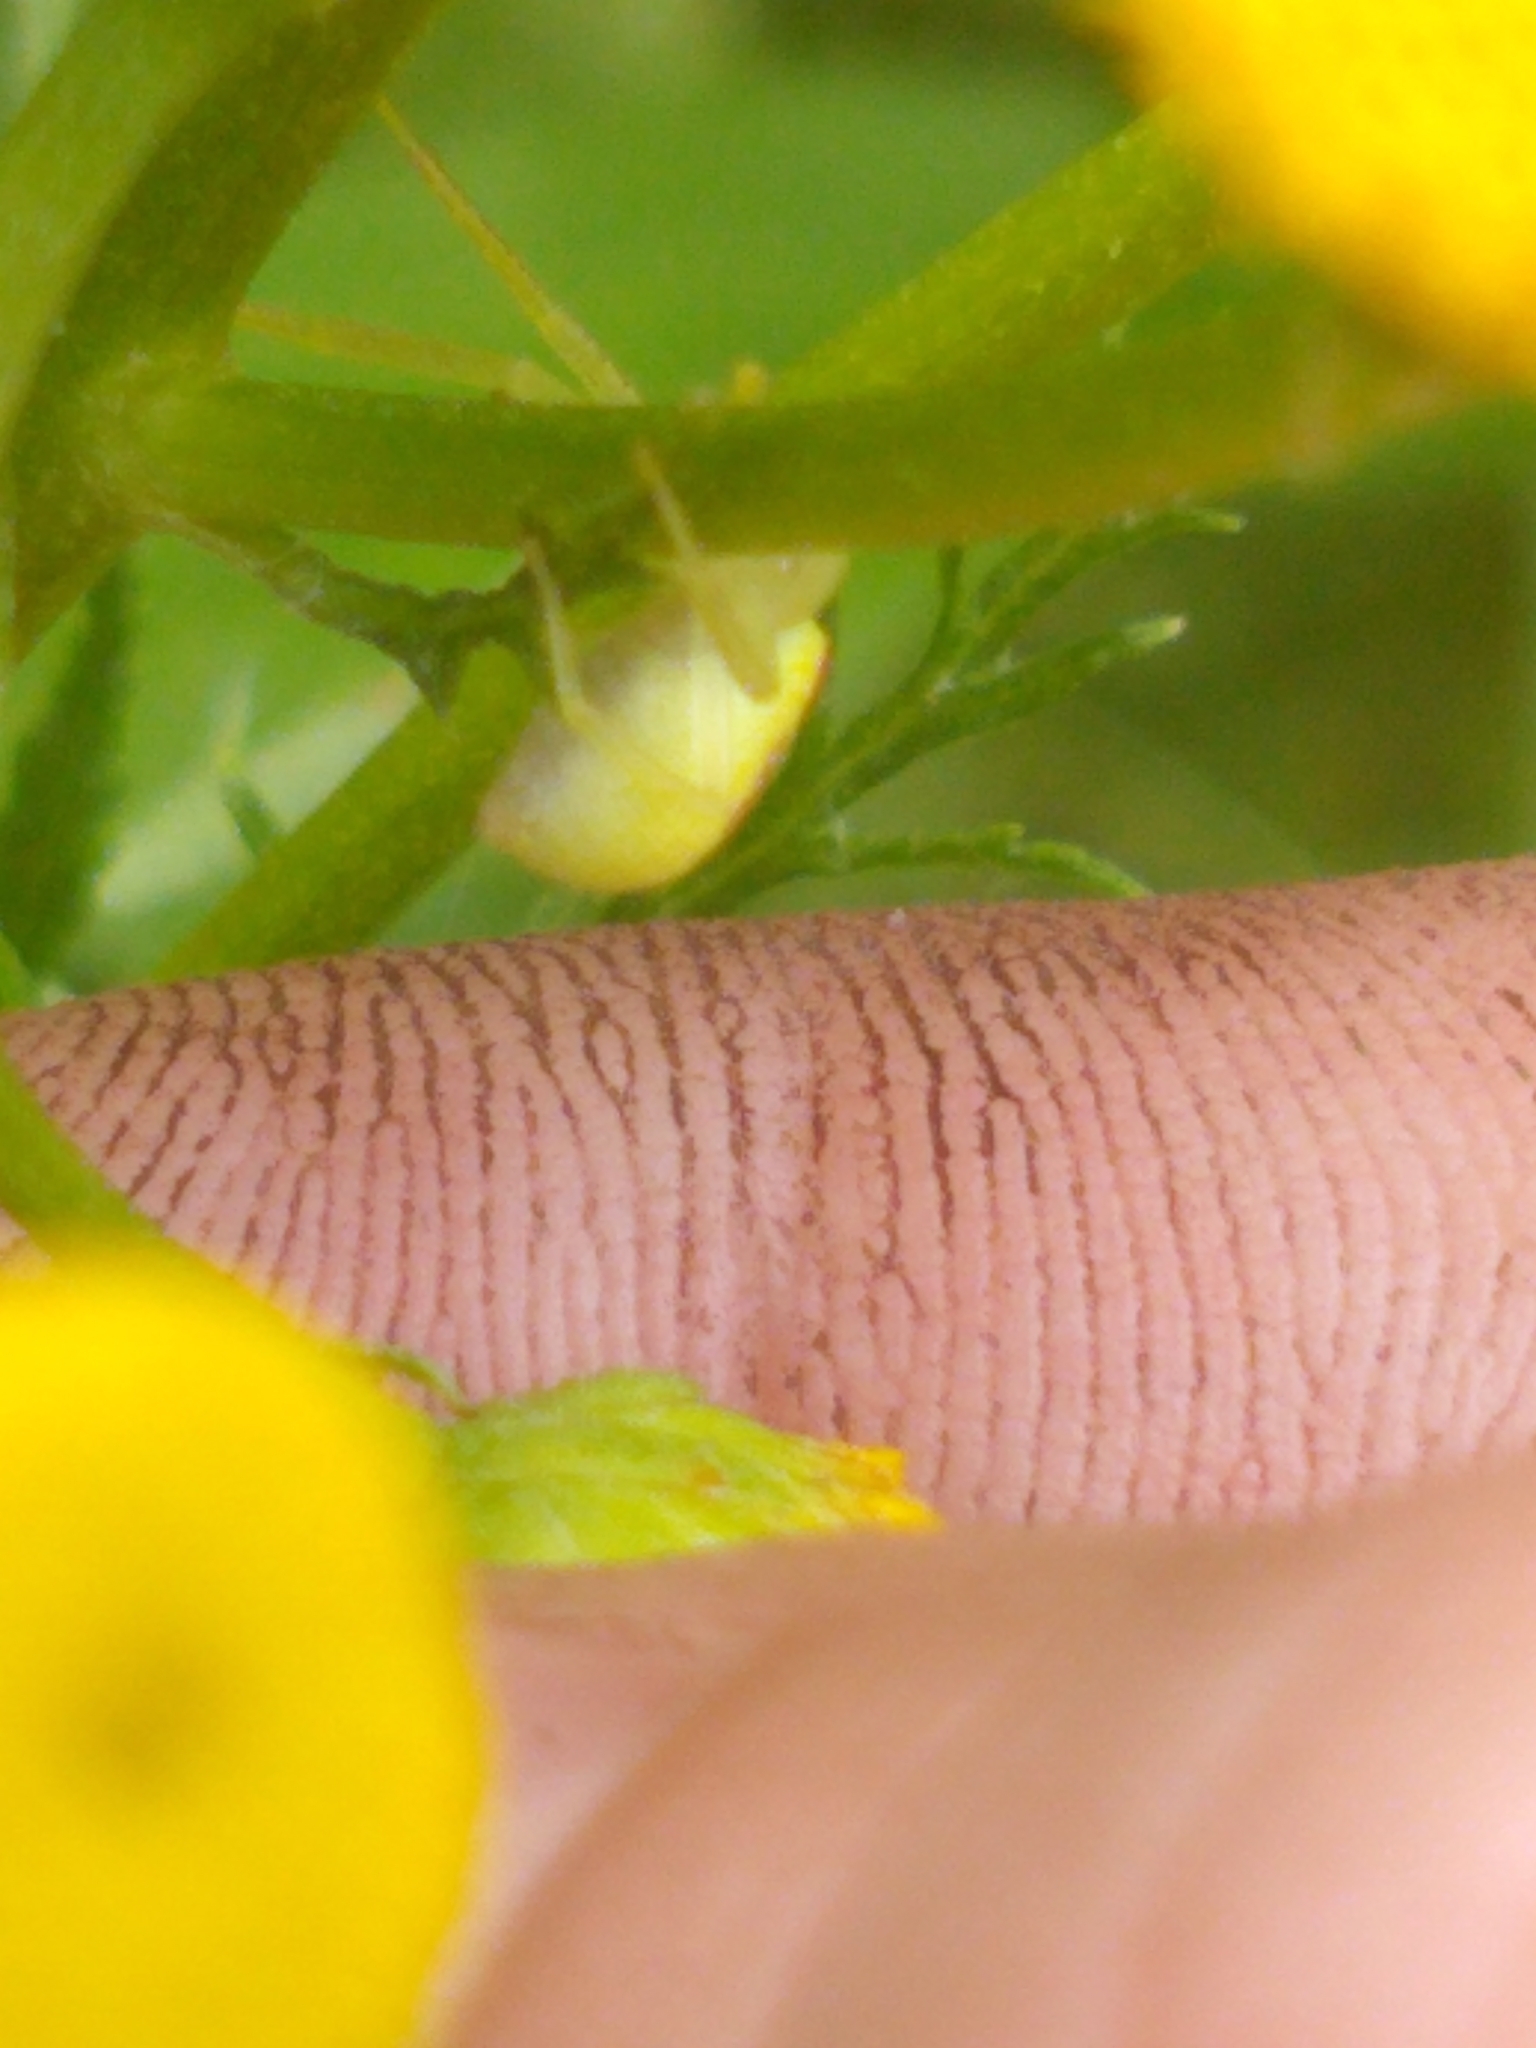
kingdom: Animalia
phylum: Arthropoda
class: Arachnida
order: Araneae
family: Thomisidae
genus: Misumessus
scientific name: Misumessus oblongus
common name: American green crab spider
